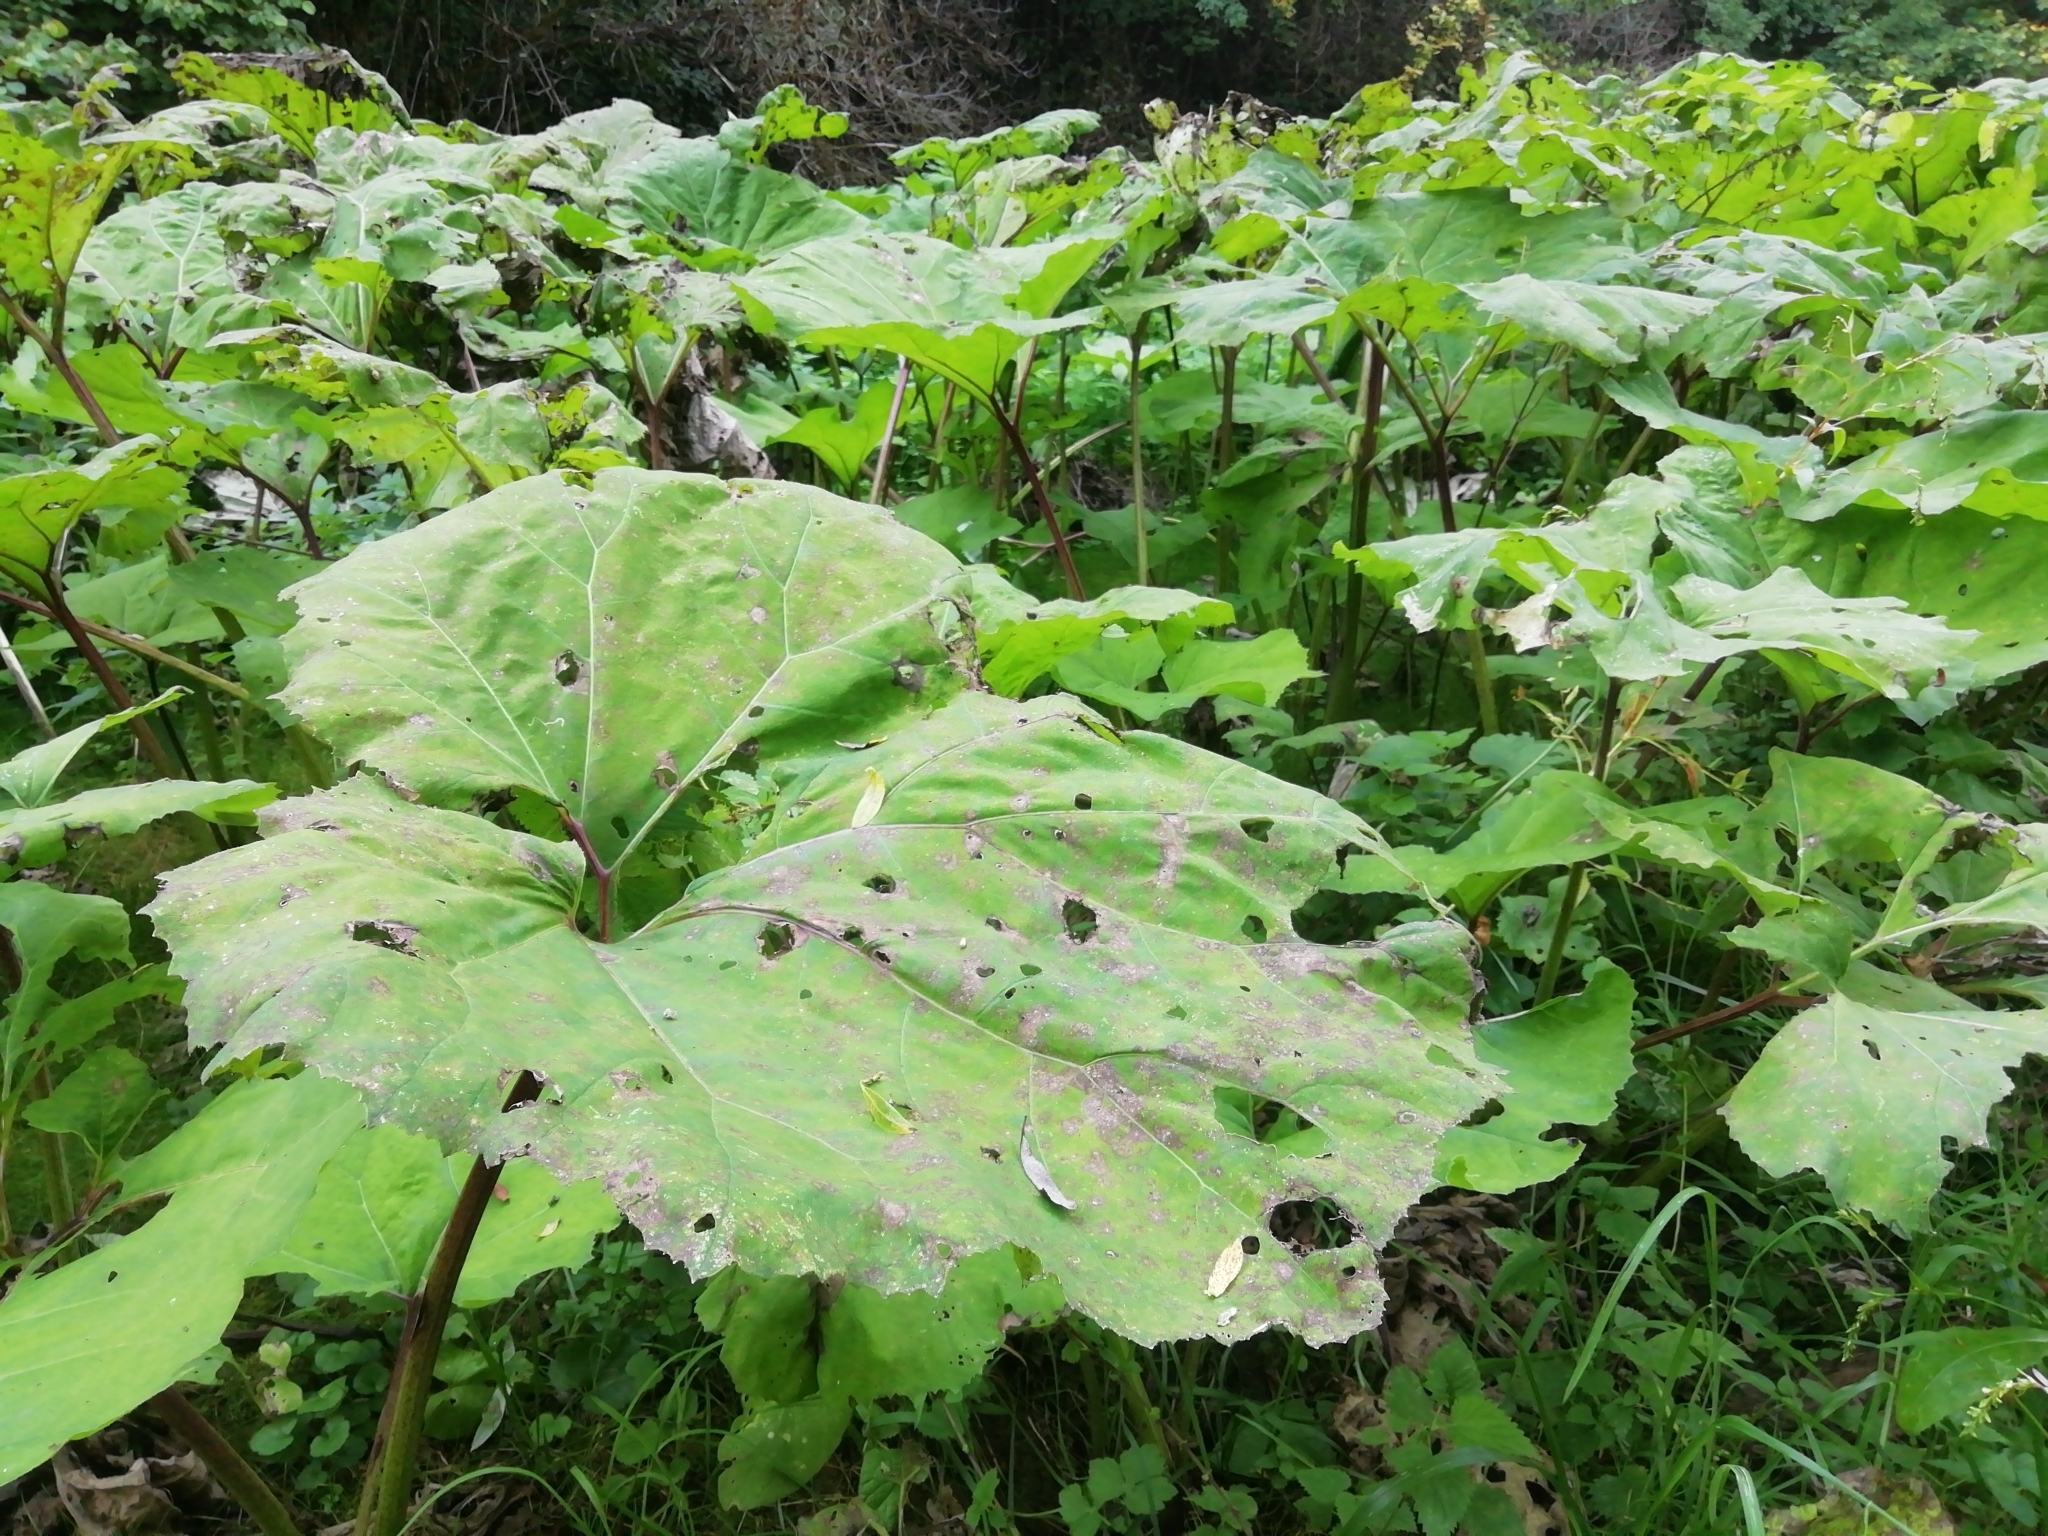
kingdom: Plantae
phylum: Tracheophyta
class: Magnoliopsida
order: Asterales
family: Asteraceae
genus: Petasites
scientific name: Petasites hybridus
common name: Butterbur
